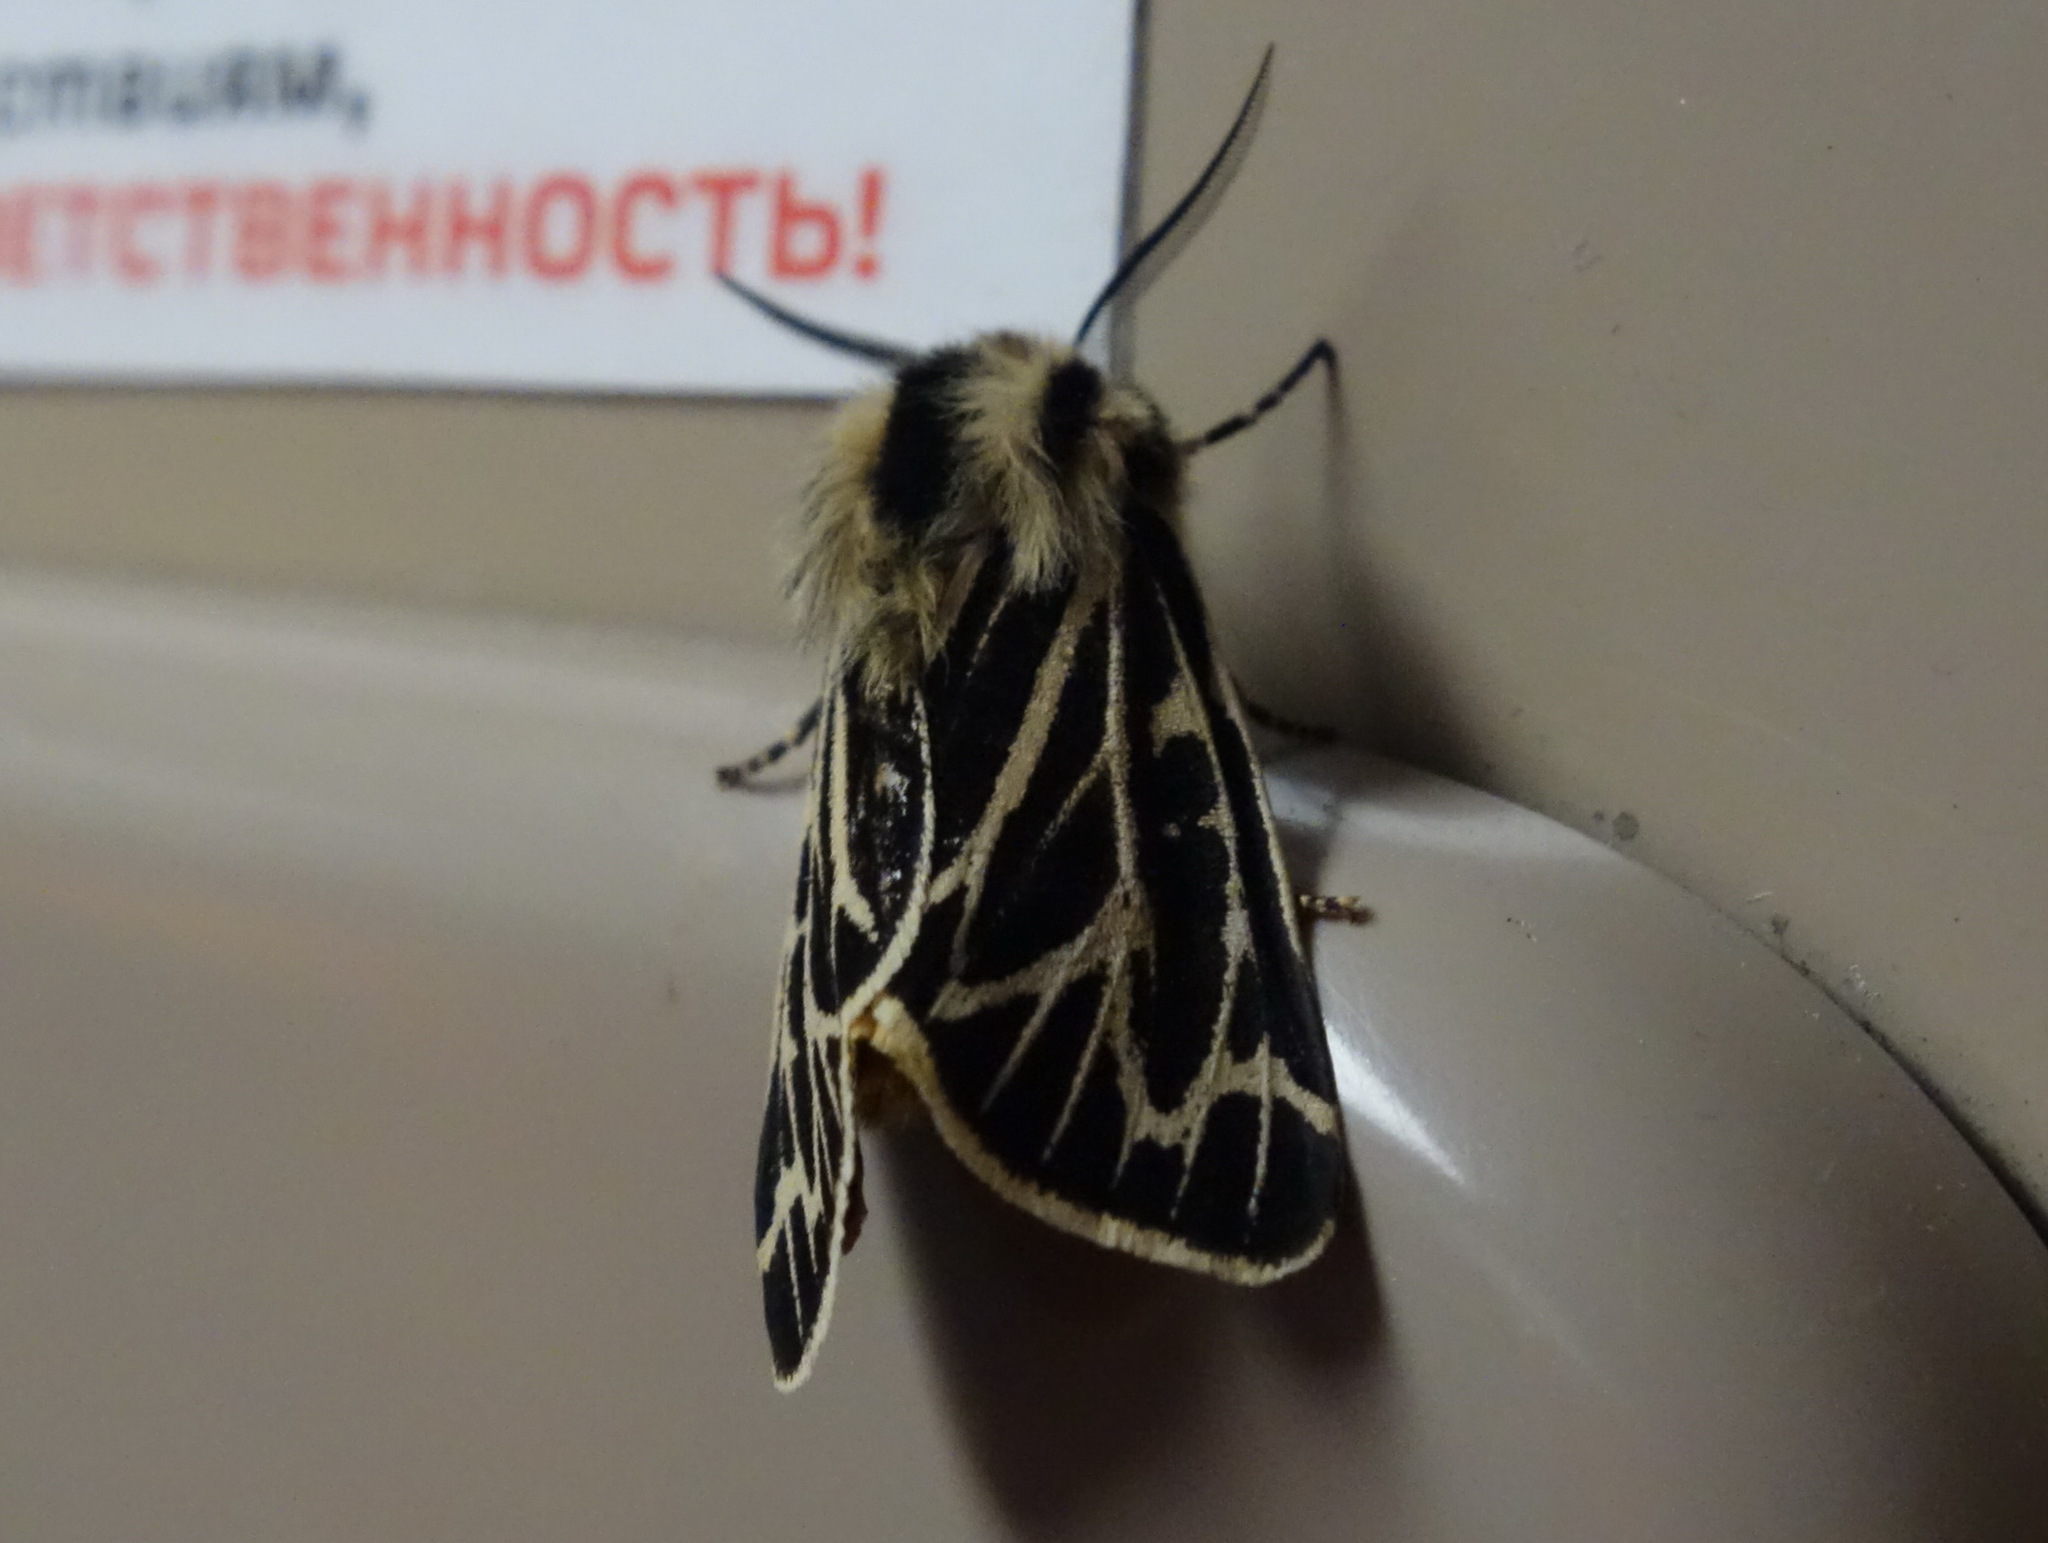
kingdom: Animalia
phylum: Arthropoda
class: Insecta
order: Lepidoptera
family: Erebidae
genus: Apantesis
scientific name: Apantesis obliterata
